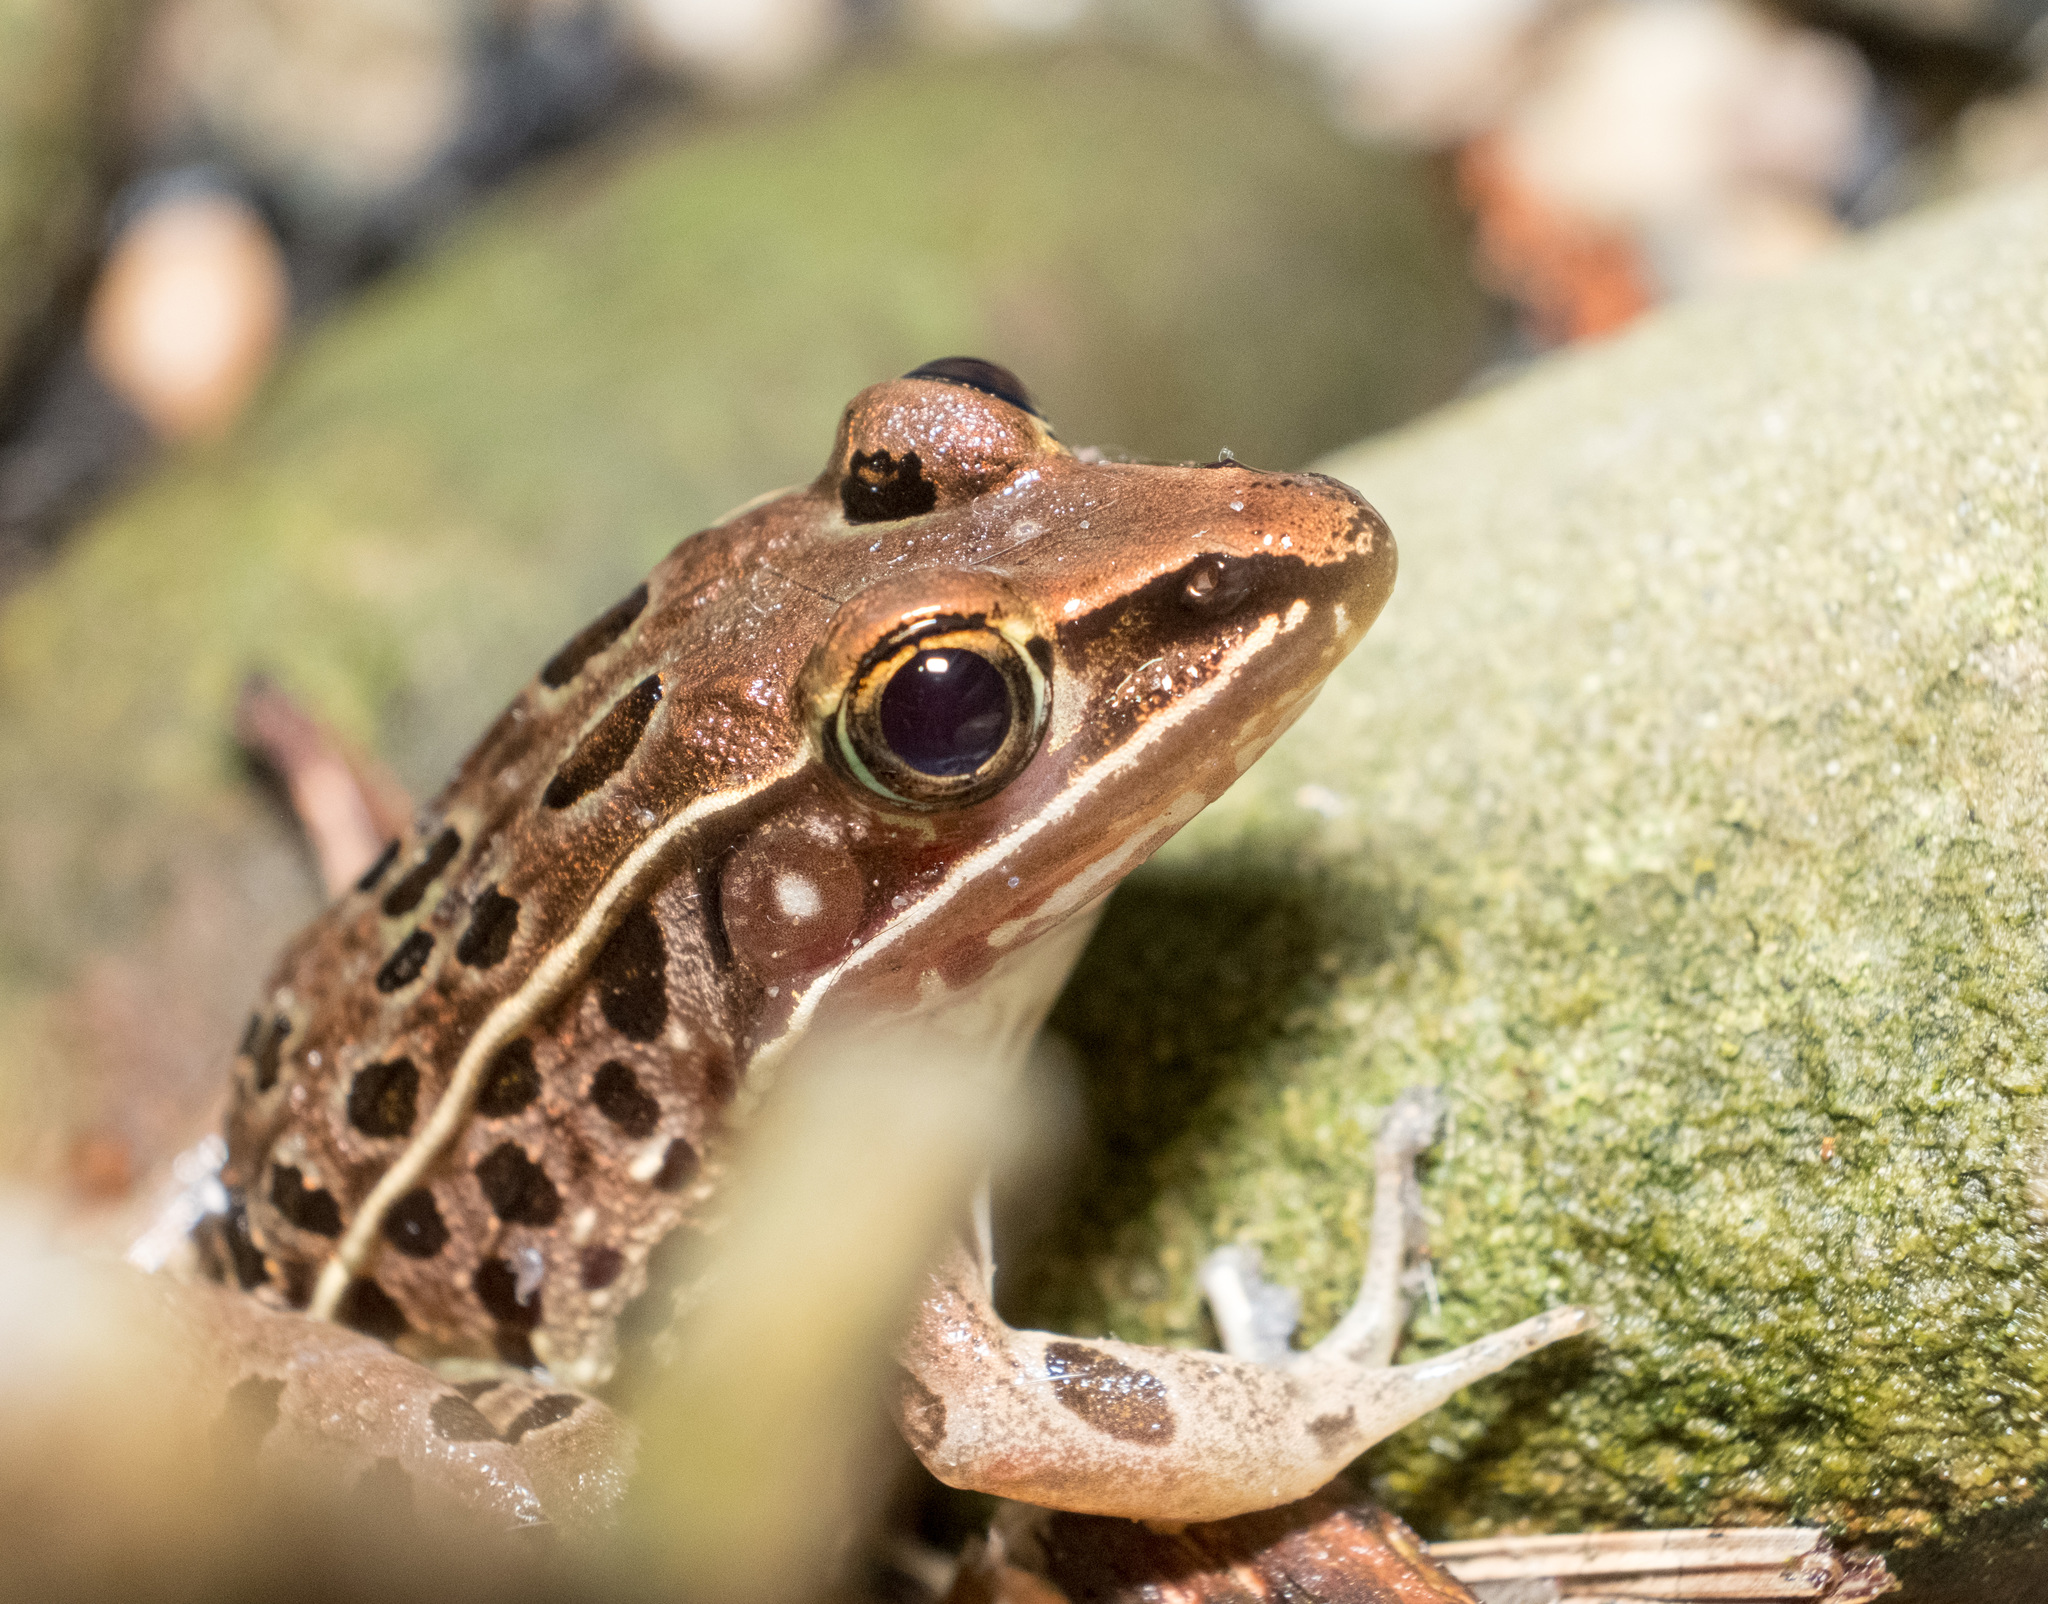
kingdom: Animalia
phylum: Chordata
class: Amphibia
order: Anura
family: Ranidae
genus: Lithobates
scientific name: Lithobates sphenocephalus
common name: Southern leopard frog
